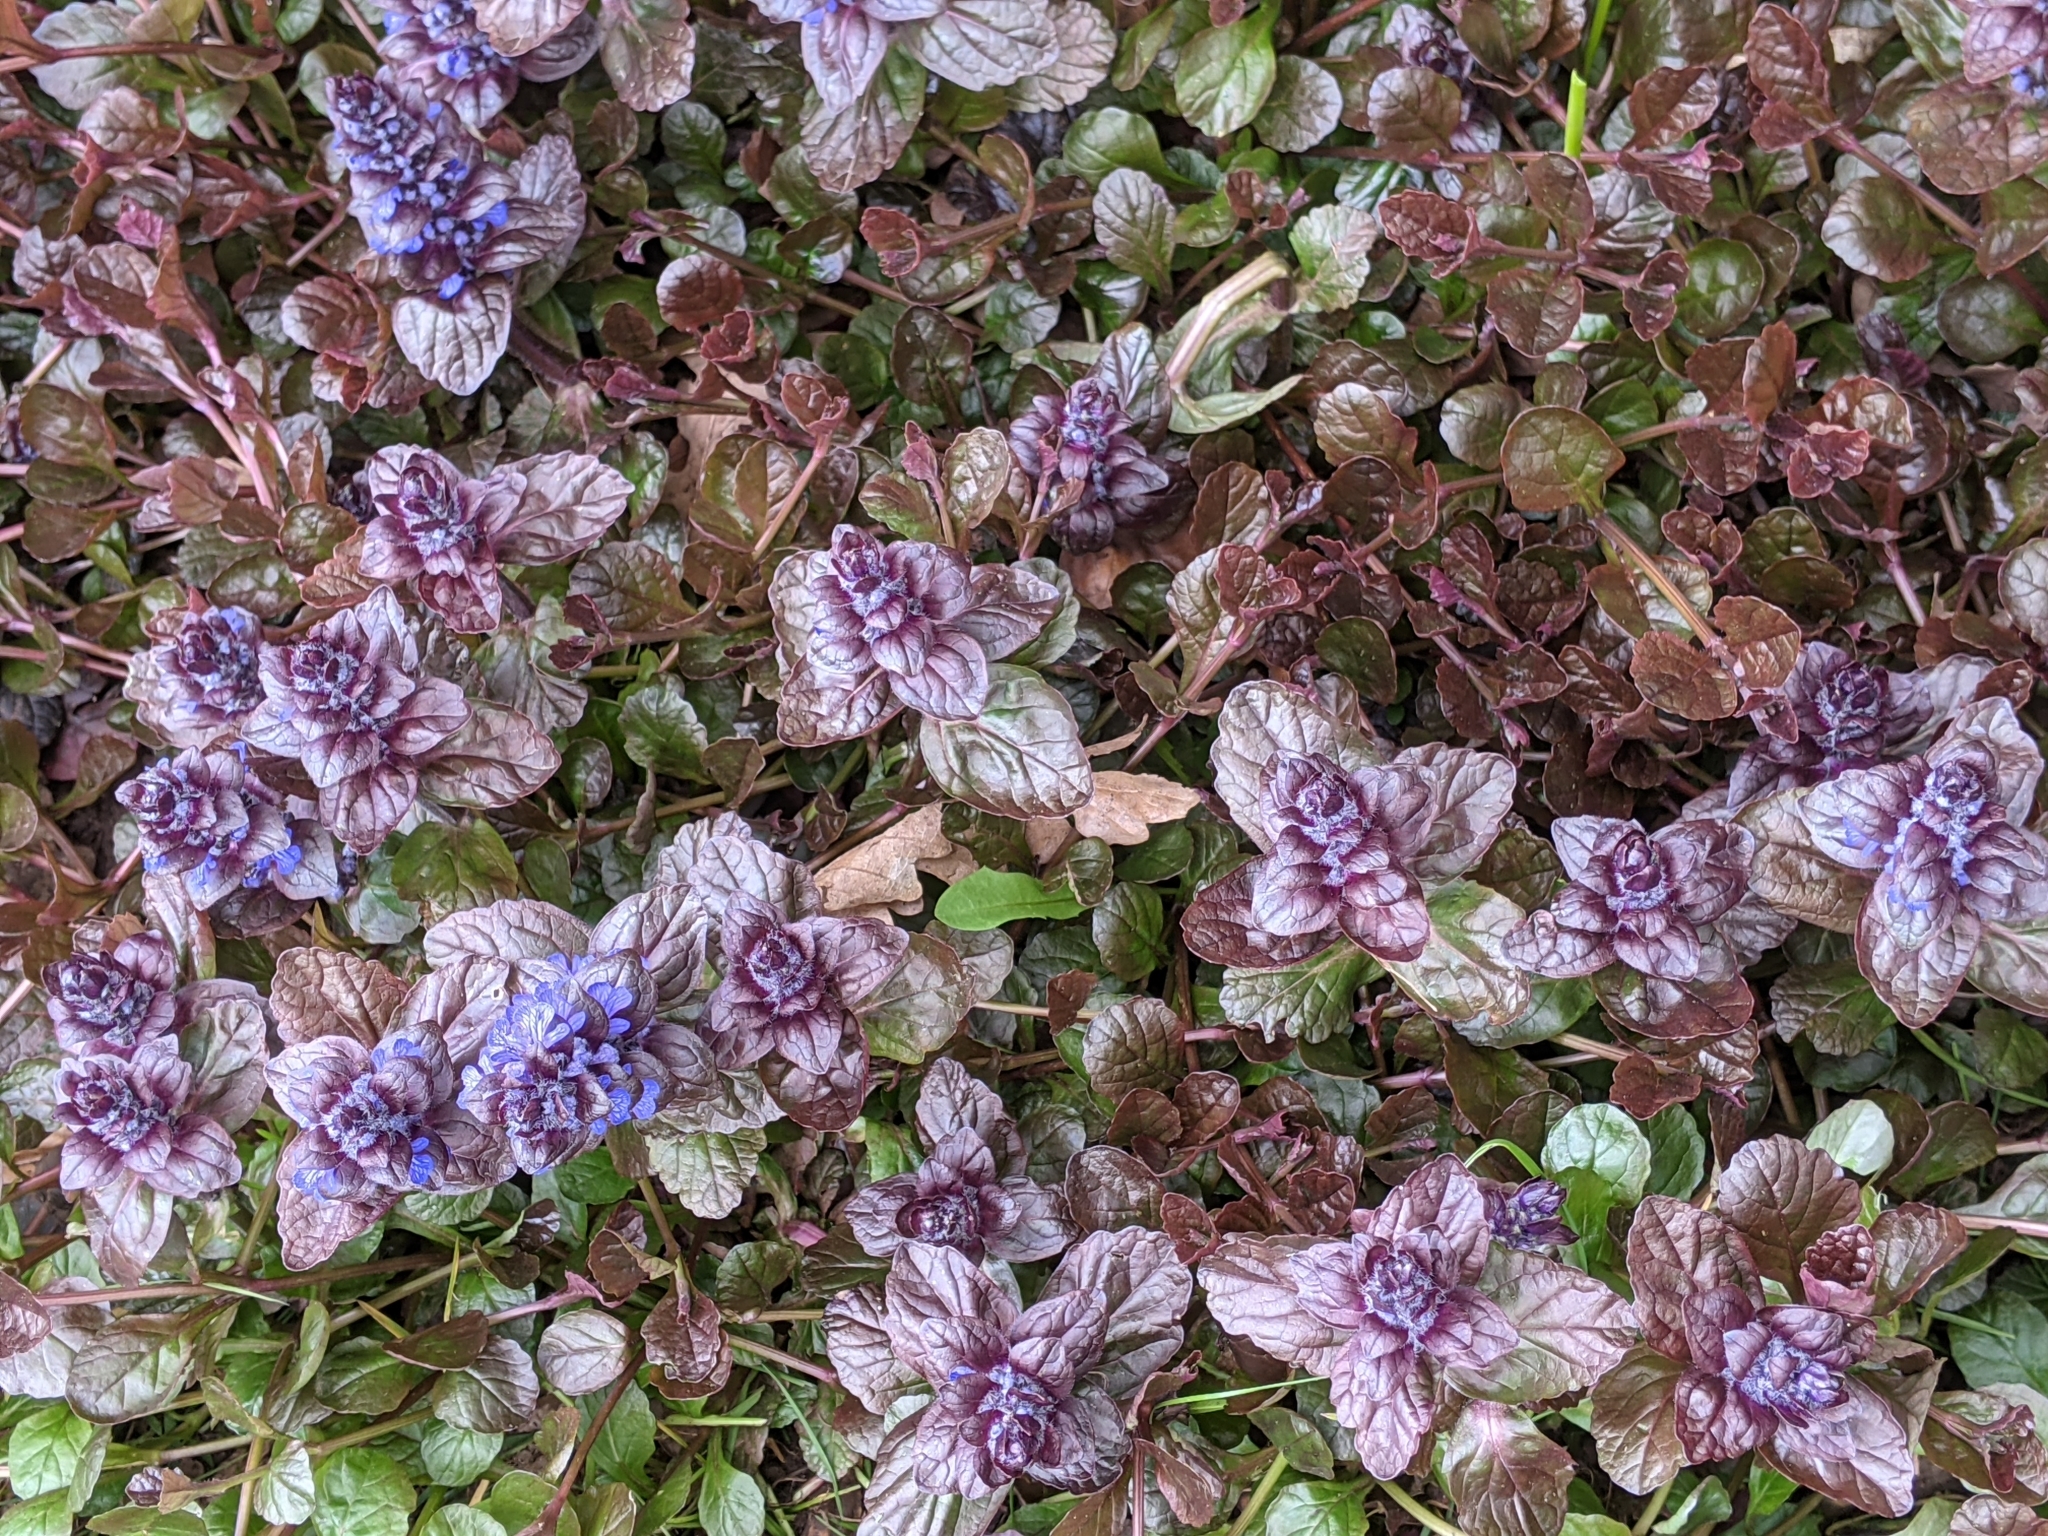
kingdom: Plantae
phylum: Tracheophyta
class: Magnoliopsida
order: Lamiales
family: Lamiaceae
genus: Ajuga
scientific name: Ajuga reptans
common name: Bugle
